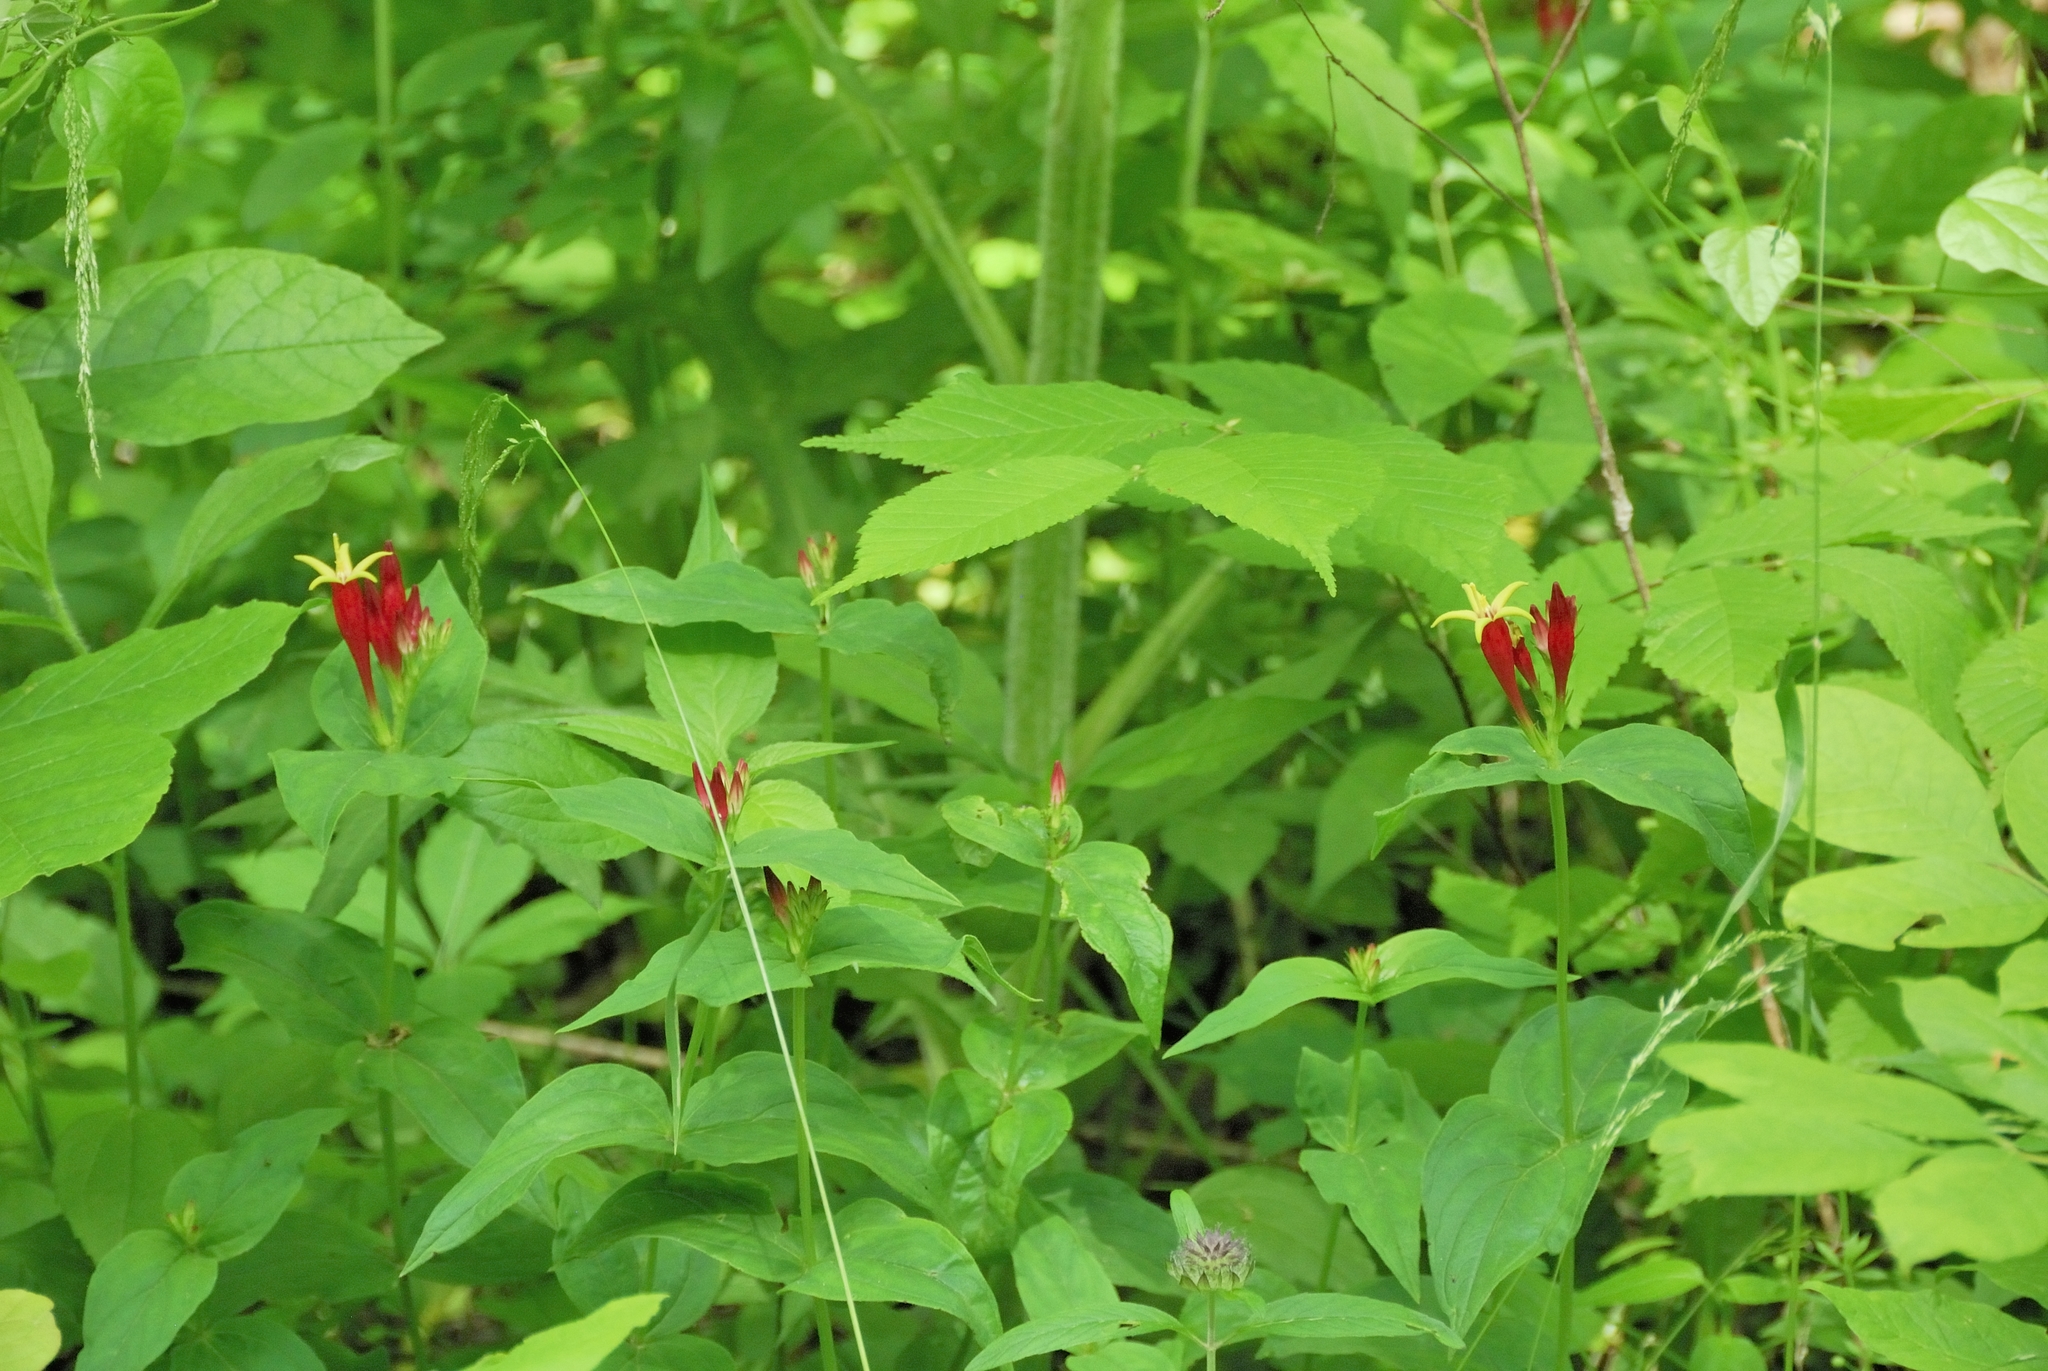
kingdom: Plantae
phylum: Tracheophyta
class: Magnoliopsida
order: Gentianales
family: Loganiaceae
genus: Spigelia
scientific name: Spigelia marilandica
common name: Indian-pink
